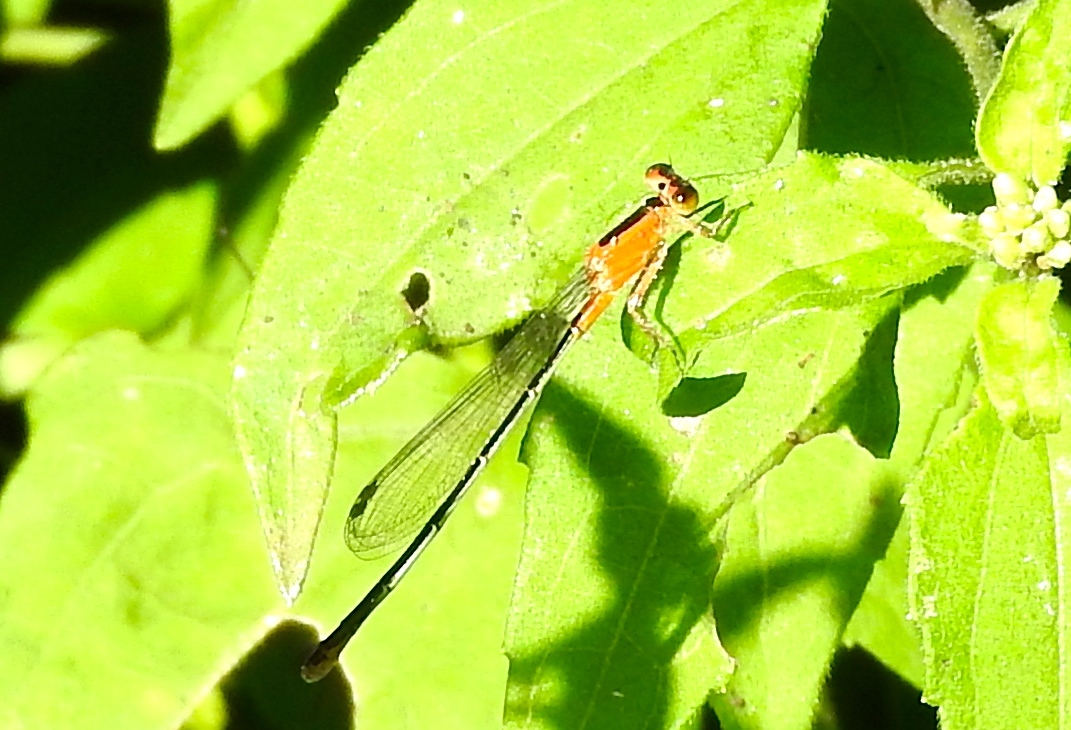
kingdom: Animalia
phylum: Arthropoda
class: Insecta
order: Odonata
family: Coenagrionidae
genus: Ischnura
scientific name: Ischnura ramburii
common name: Rambur's forktail
